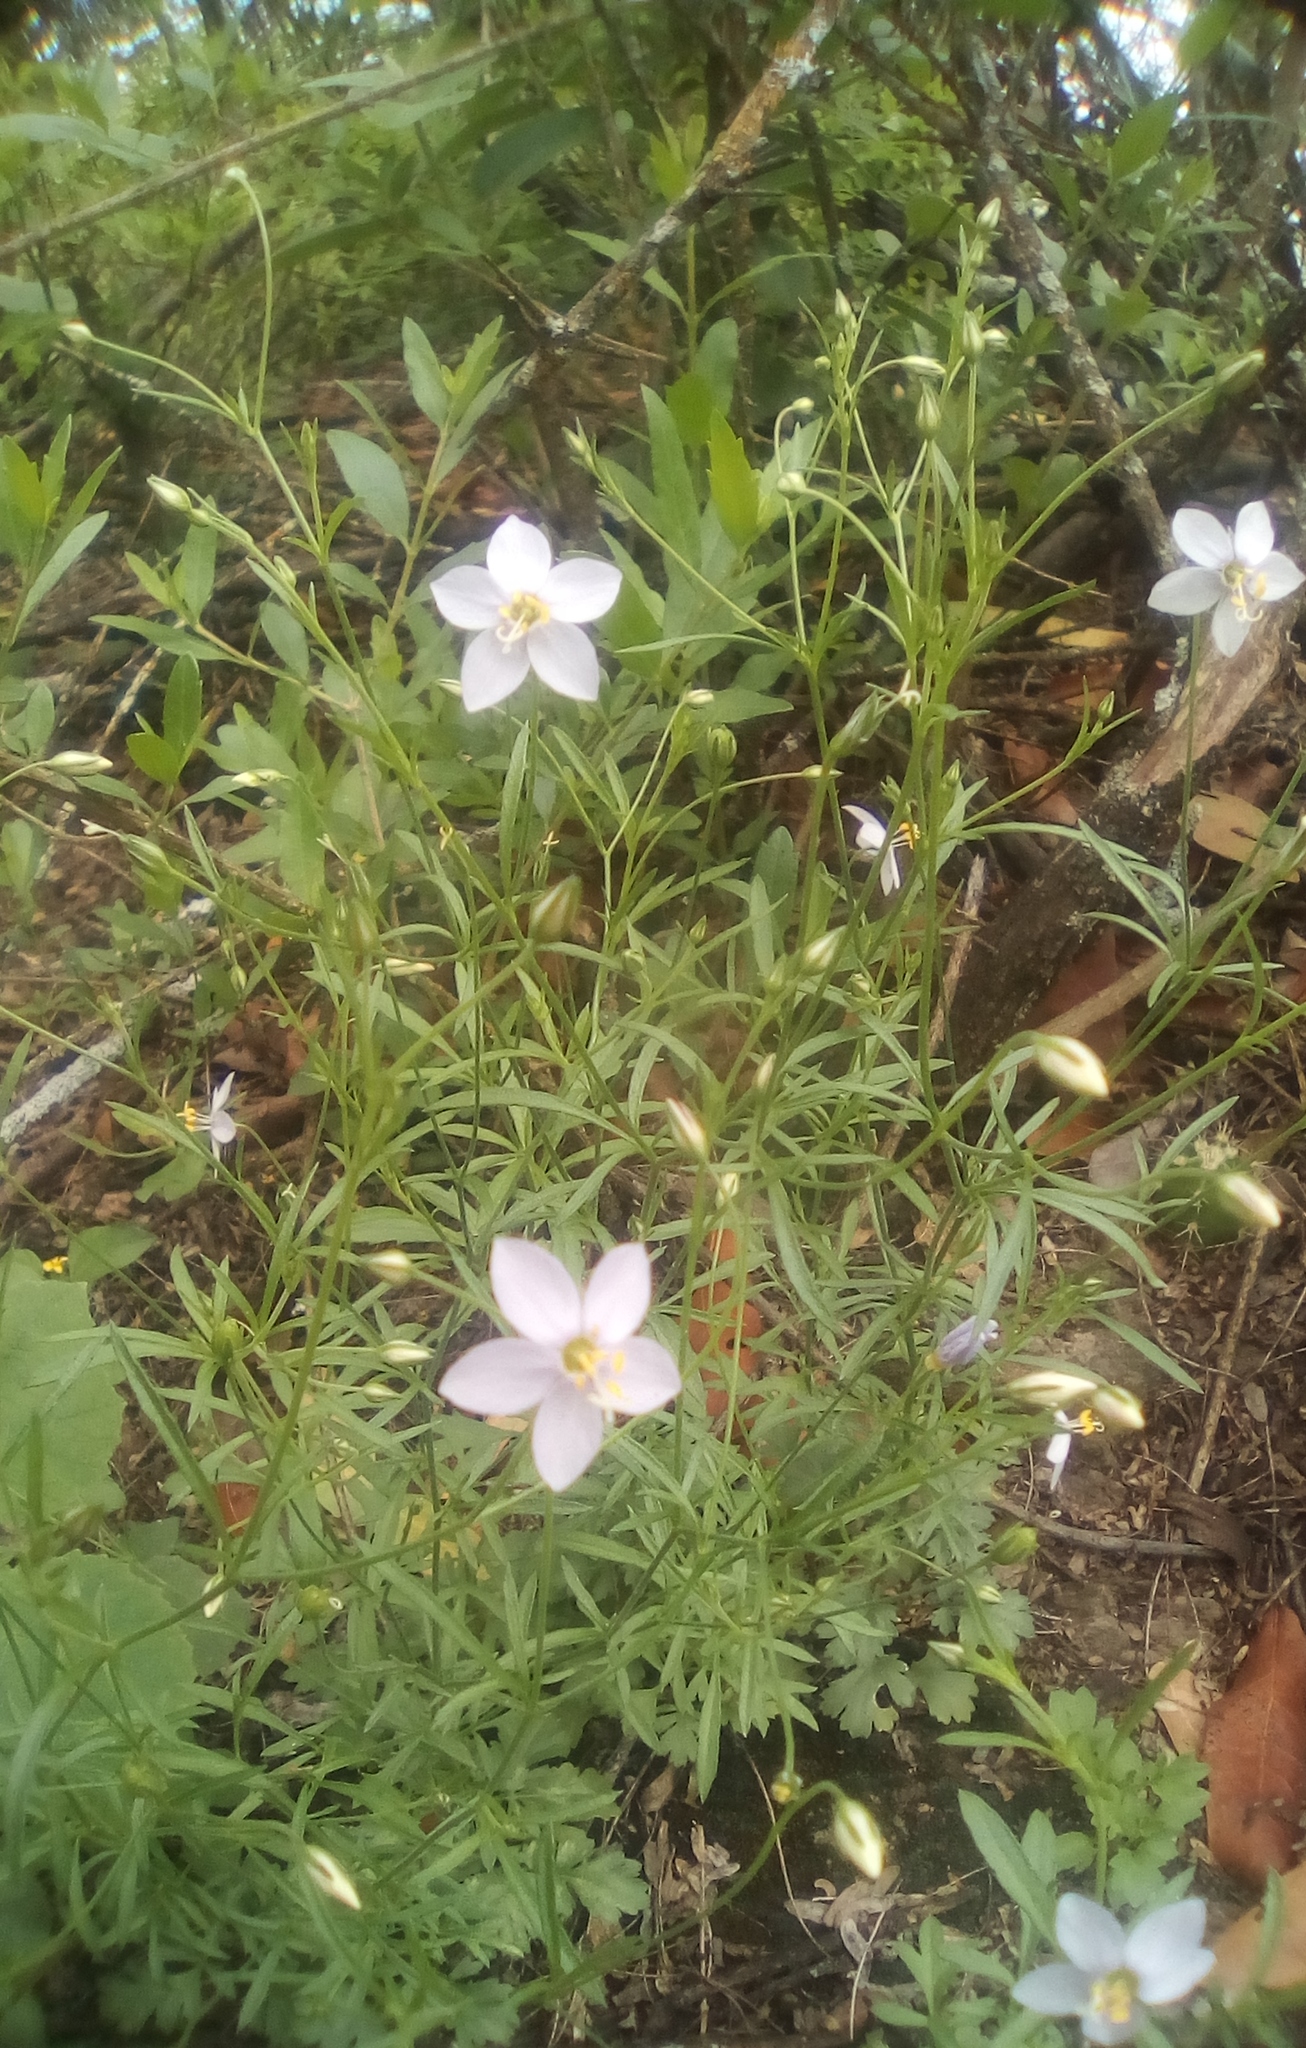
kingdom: Plantae
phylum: Tracheophyta
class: Magnoliopsida
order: Ericales
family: Polemoniaceae
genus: Giliastrum
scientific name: Giliastrum incisum
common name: Splitleaf gilia
